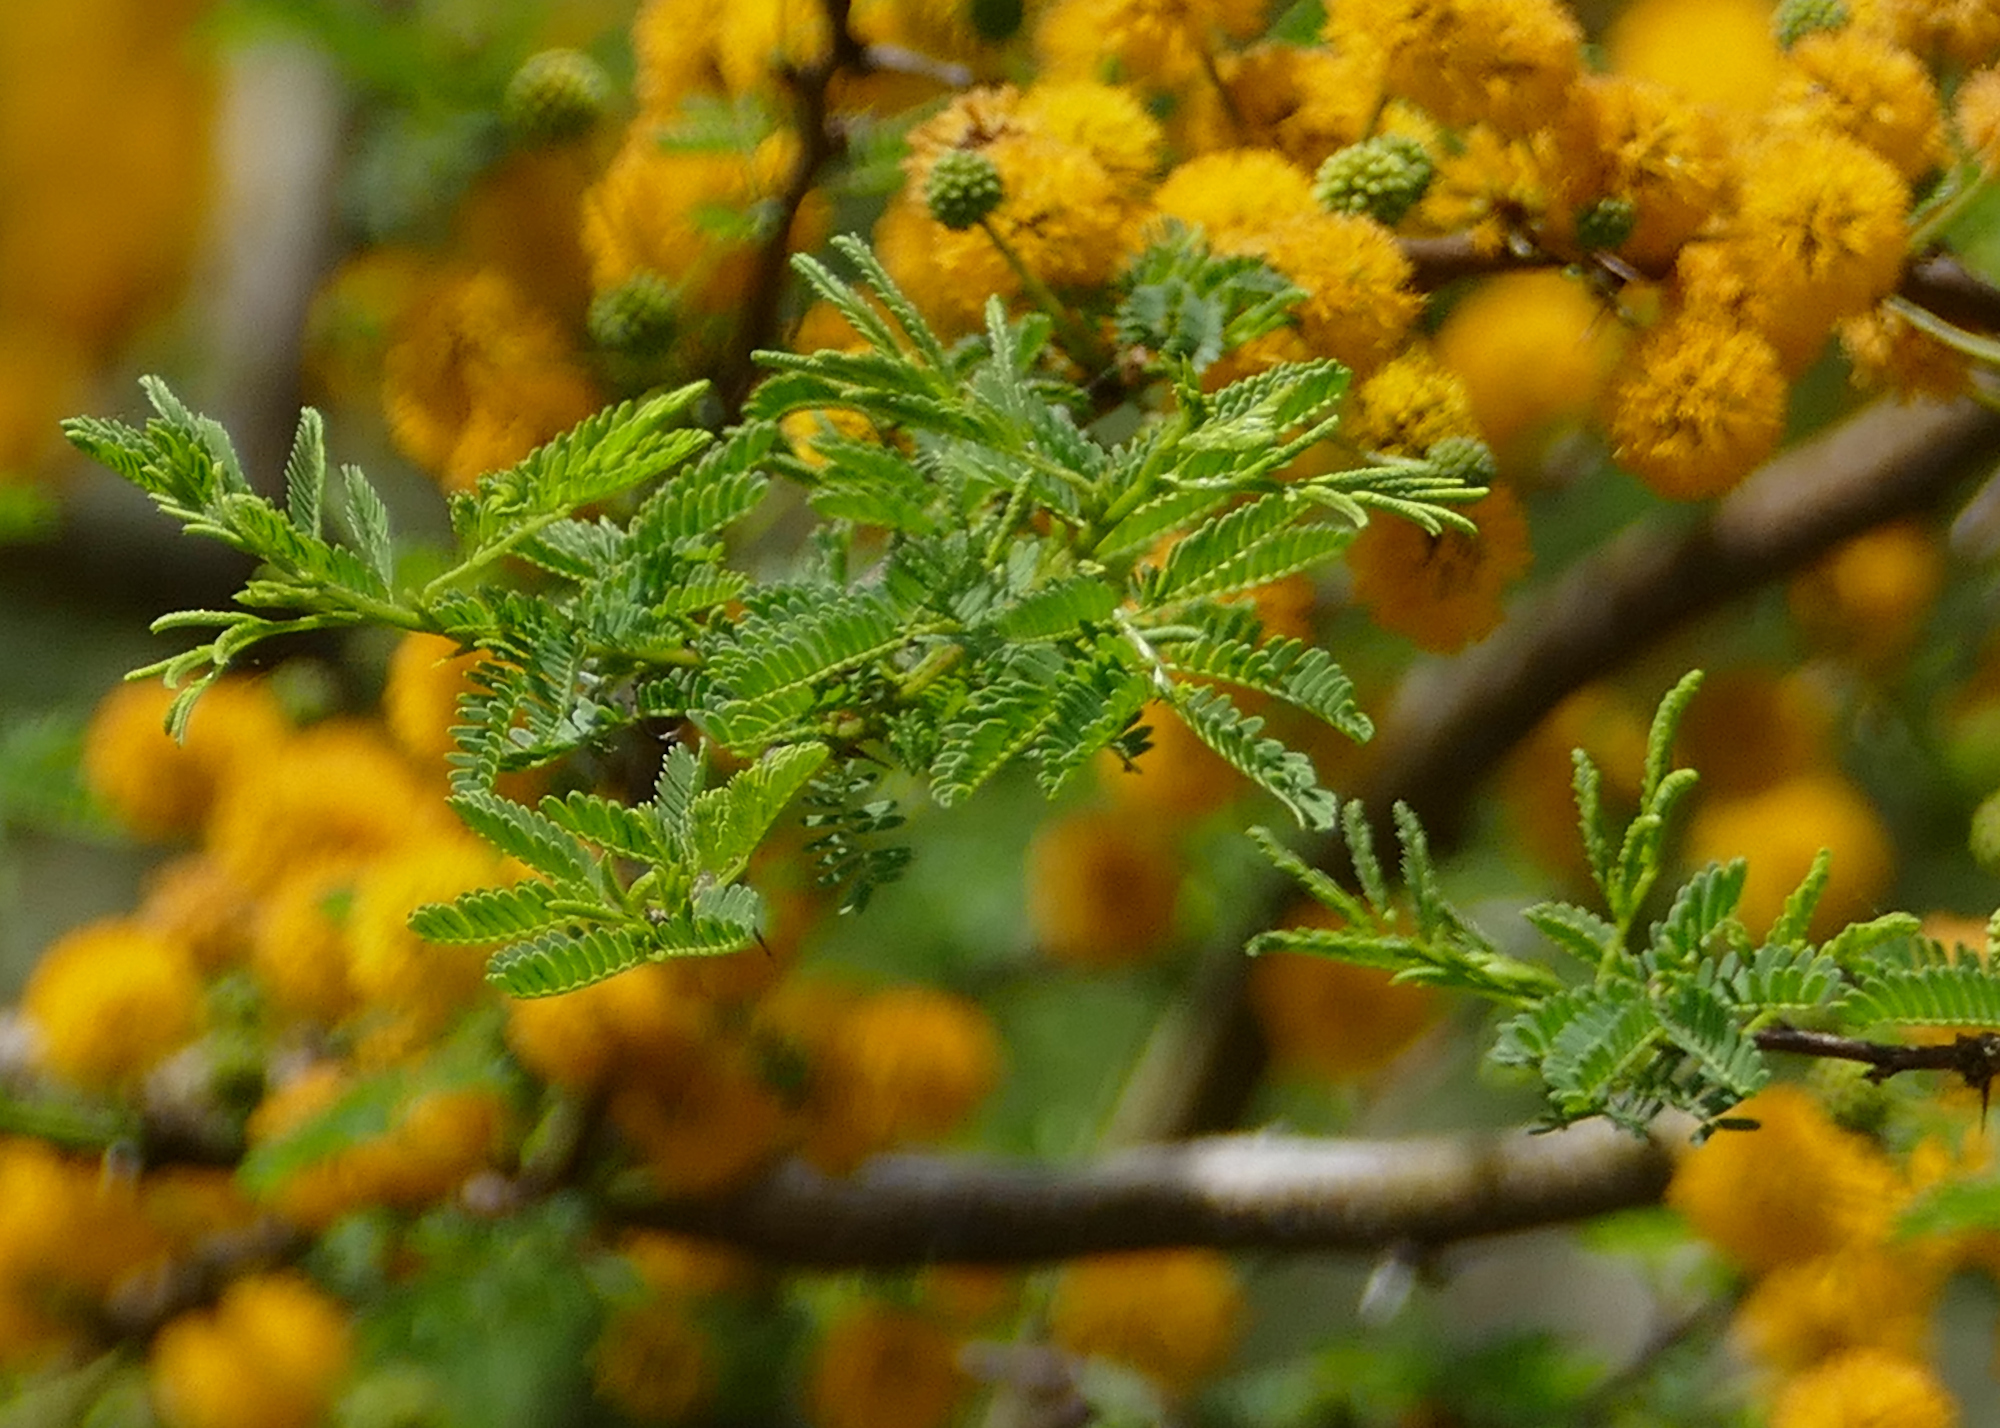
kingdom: Plantae
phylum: Tracheophyta
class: Magnoliopsida
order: Fabales
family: Fabaceae
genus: Vachellia
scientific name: Vachellia farnesiana
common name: Sweet acacia
